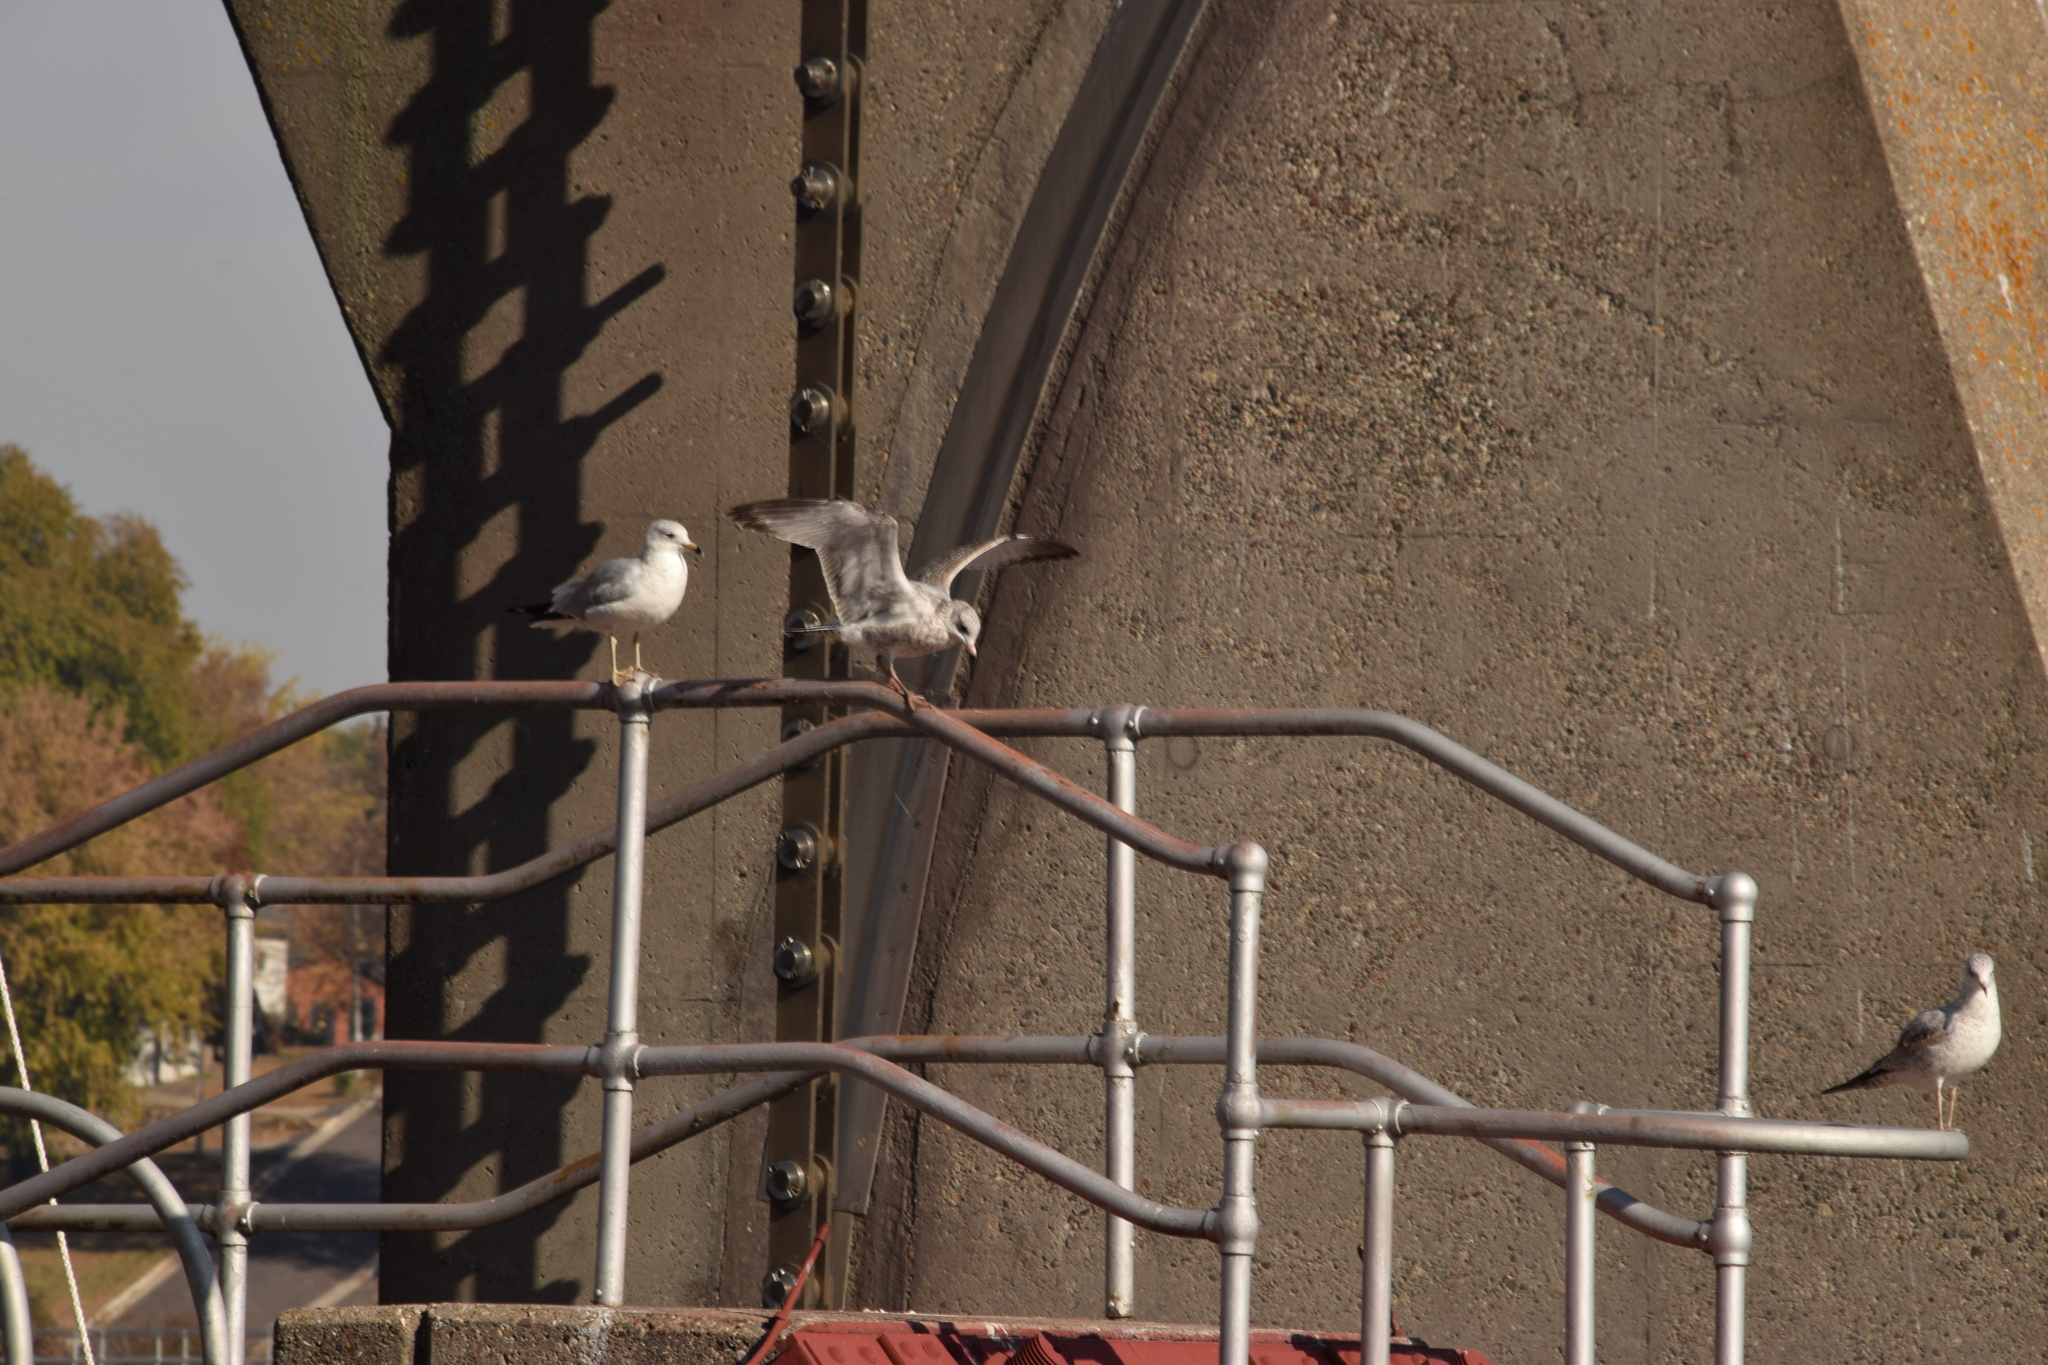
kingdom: Animalia
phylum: Chordata
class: Aves
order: Charadriiformes
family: Laridae
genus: Larus
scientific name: Larus delawarensis
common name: Ring-billed gull
